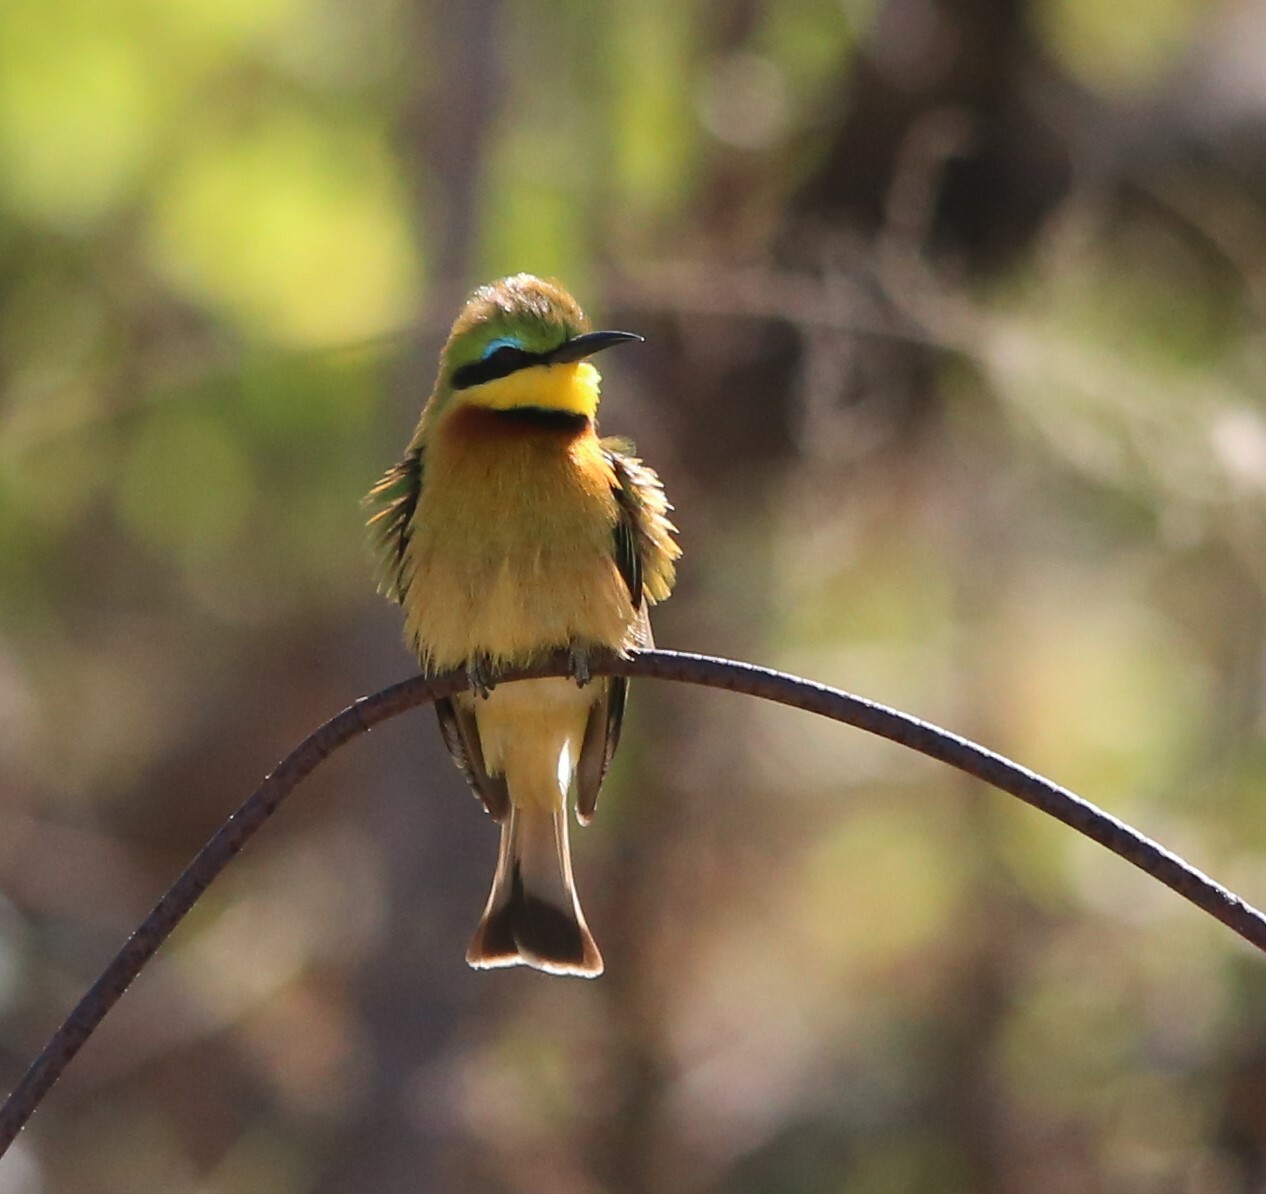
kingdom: Animalia
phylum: Chordata
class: Aves
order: Coraciiformes
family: Meropidae
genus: Merops
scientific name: Merops pusillus
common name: Little bee-eater
